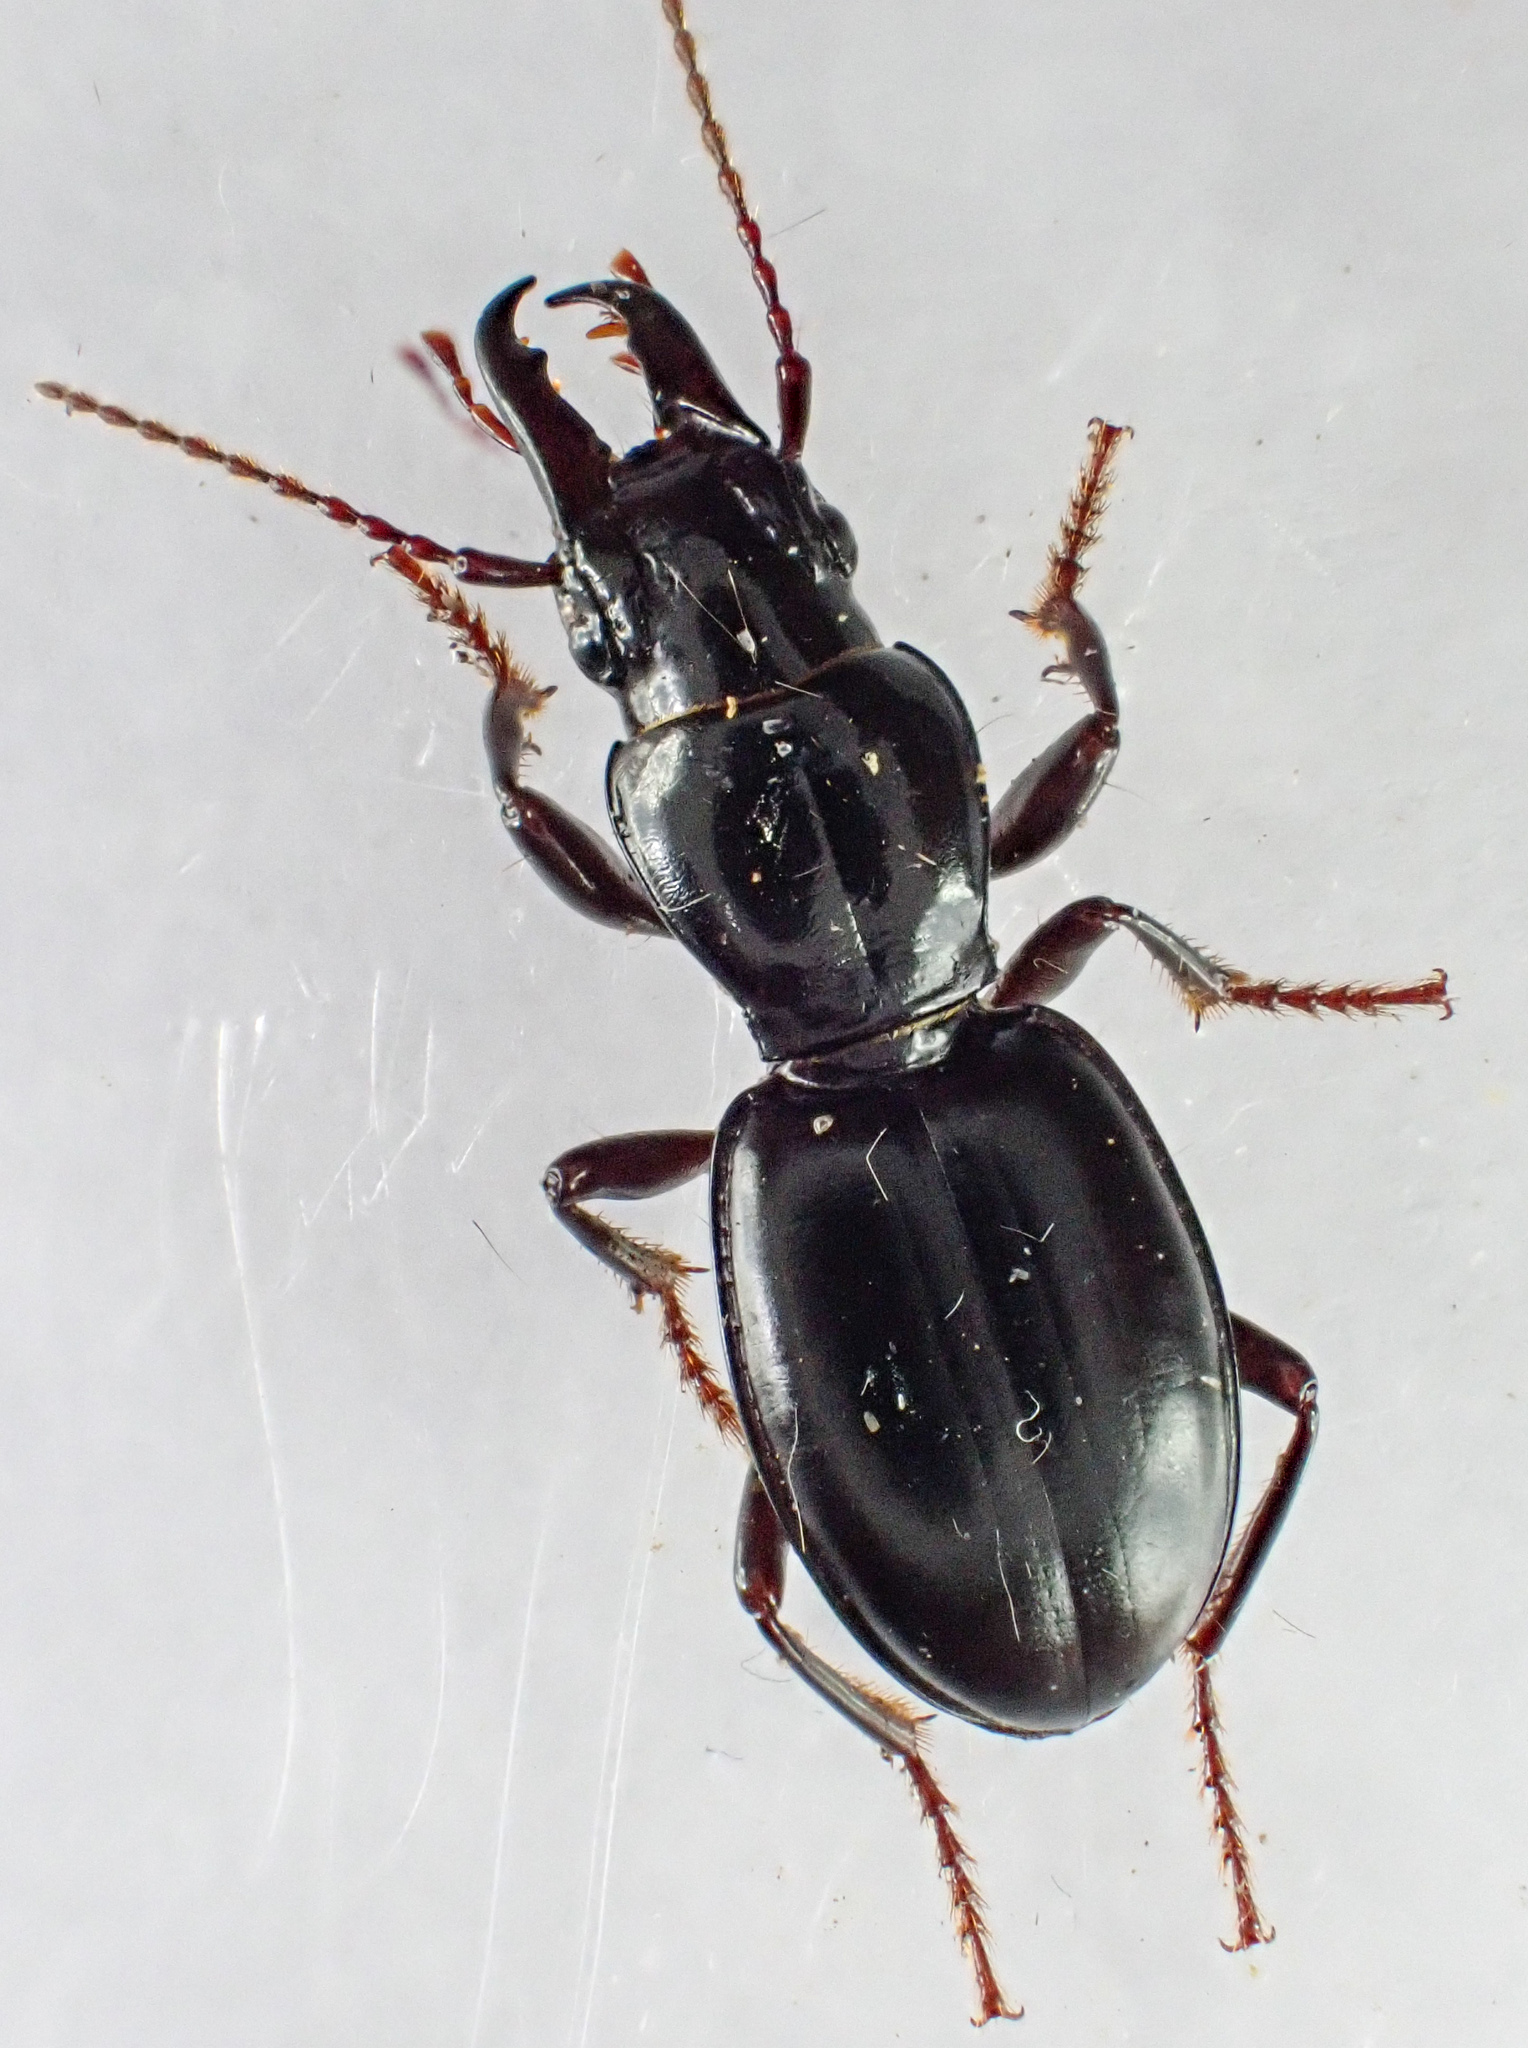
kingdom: Animalia
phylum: Arthropoda
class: Insecta
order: Coleoptera
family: Carabidae
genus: Promecognathus
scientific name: Promecognathus crassus
